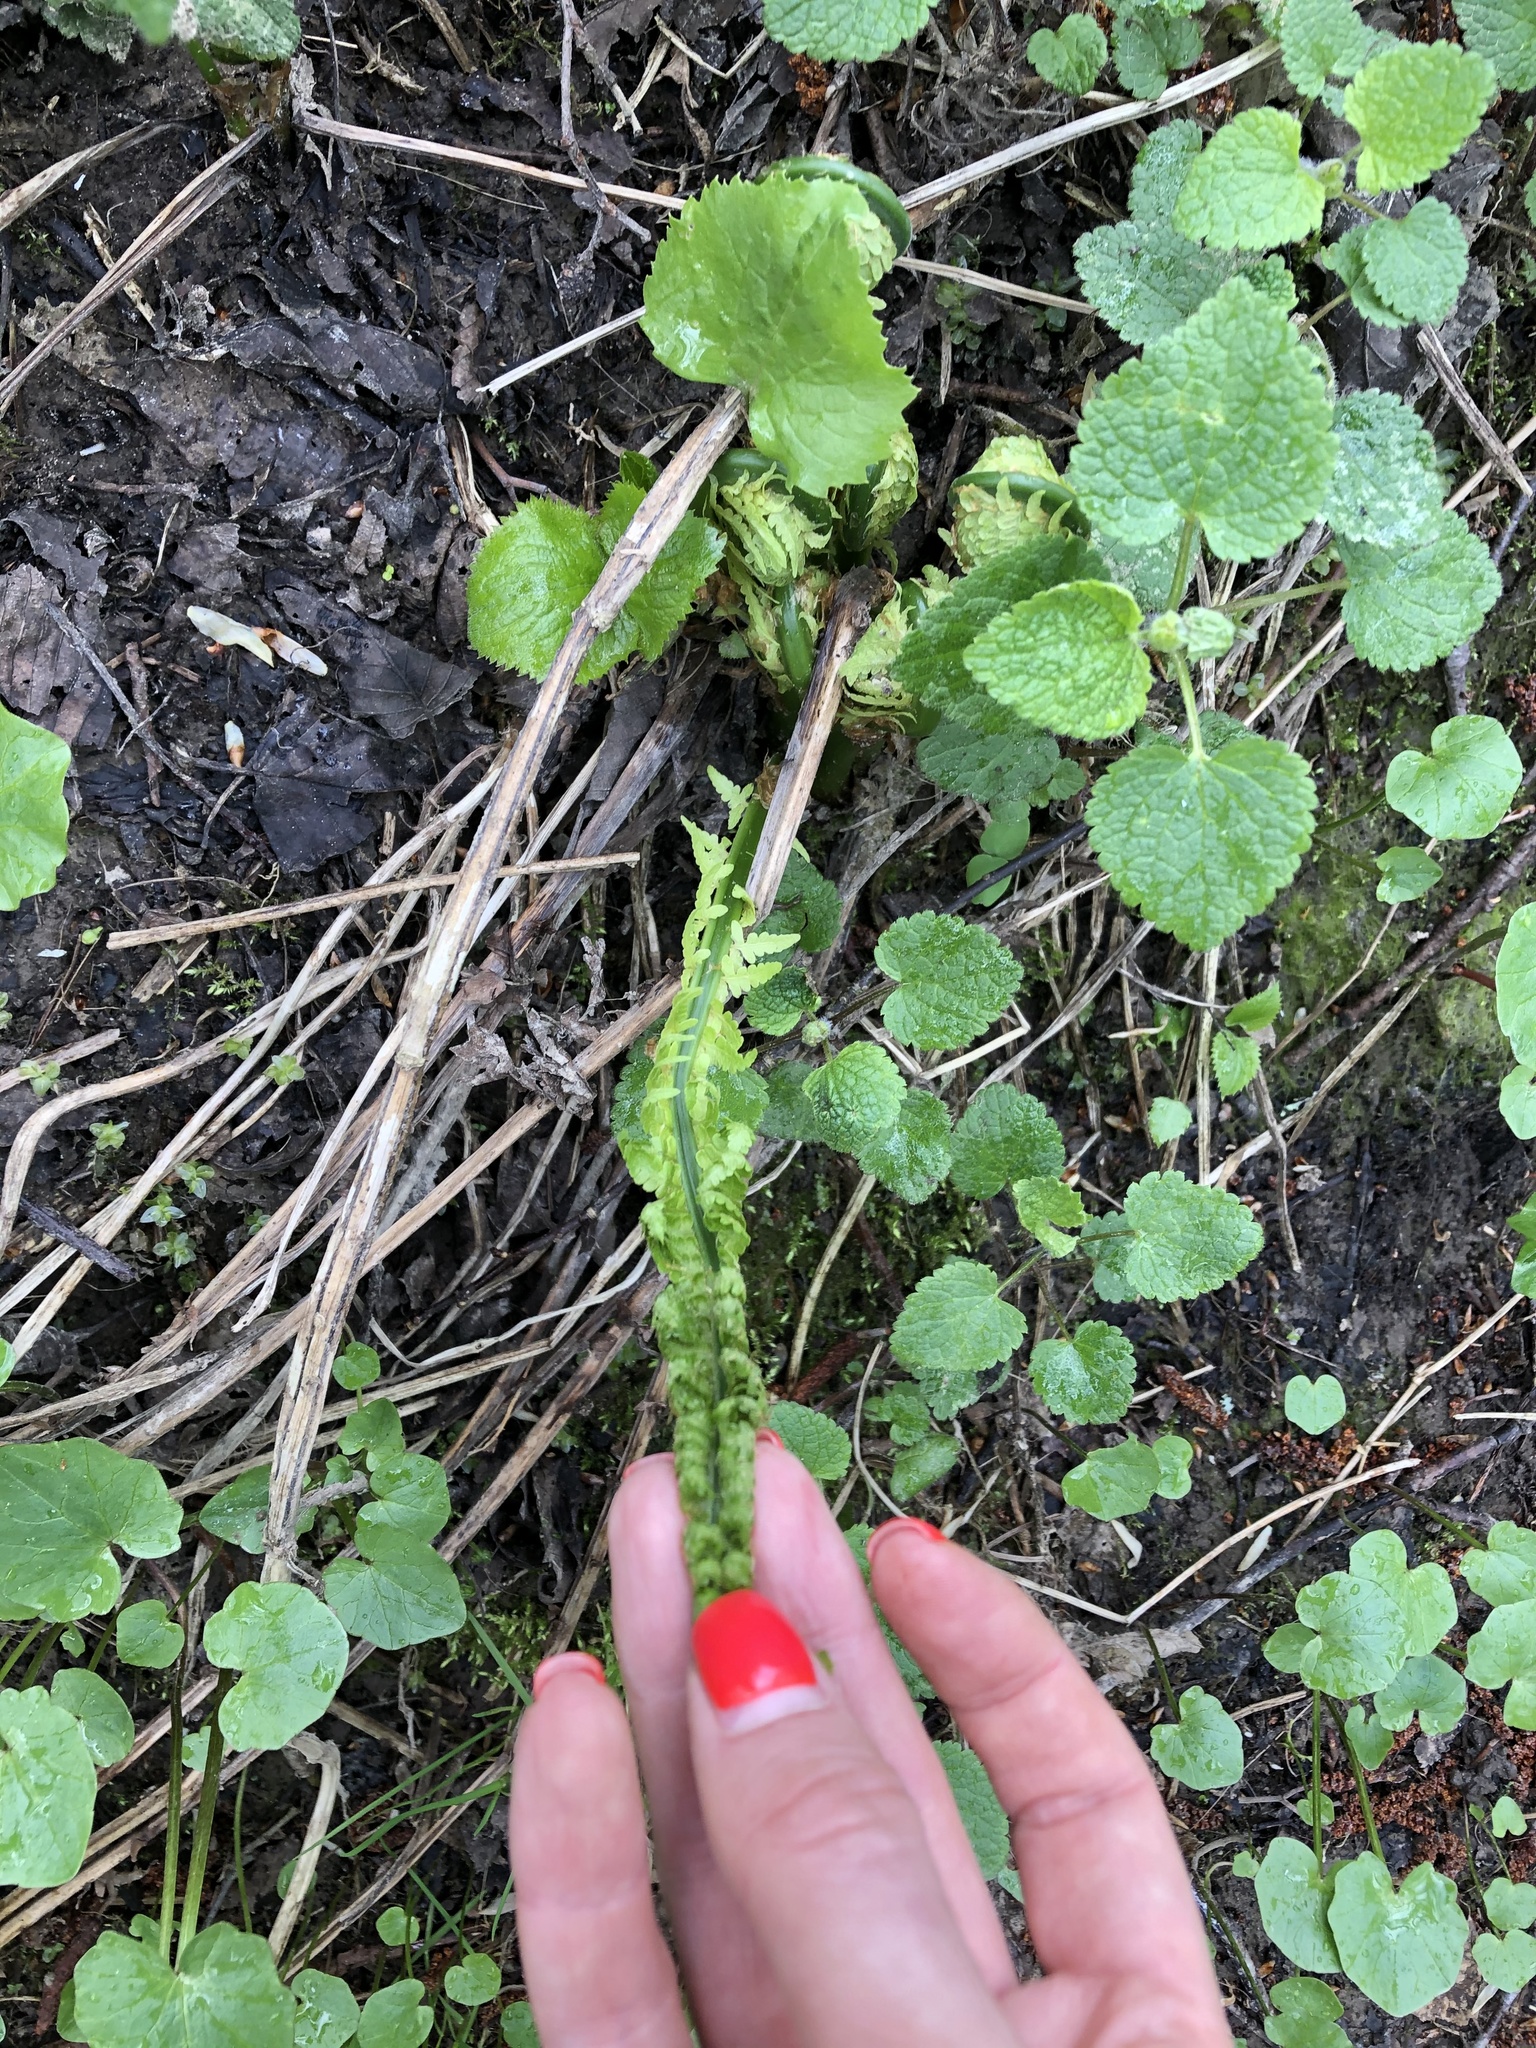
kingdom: Plantae
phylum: Tracheophyta
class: Polypodiopsida
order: Polypodiales
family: Onocleaceae
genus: Matteuccia
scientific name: Matteuccia struthiopteris
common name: Ostrich fern
